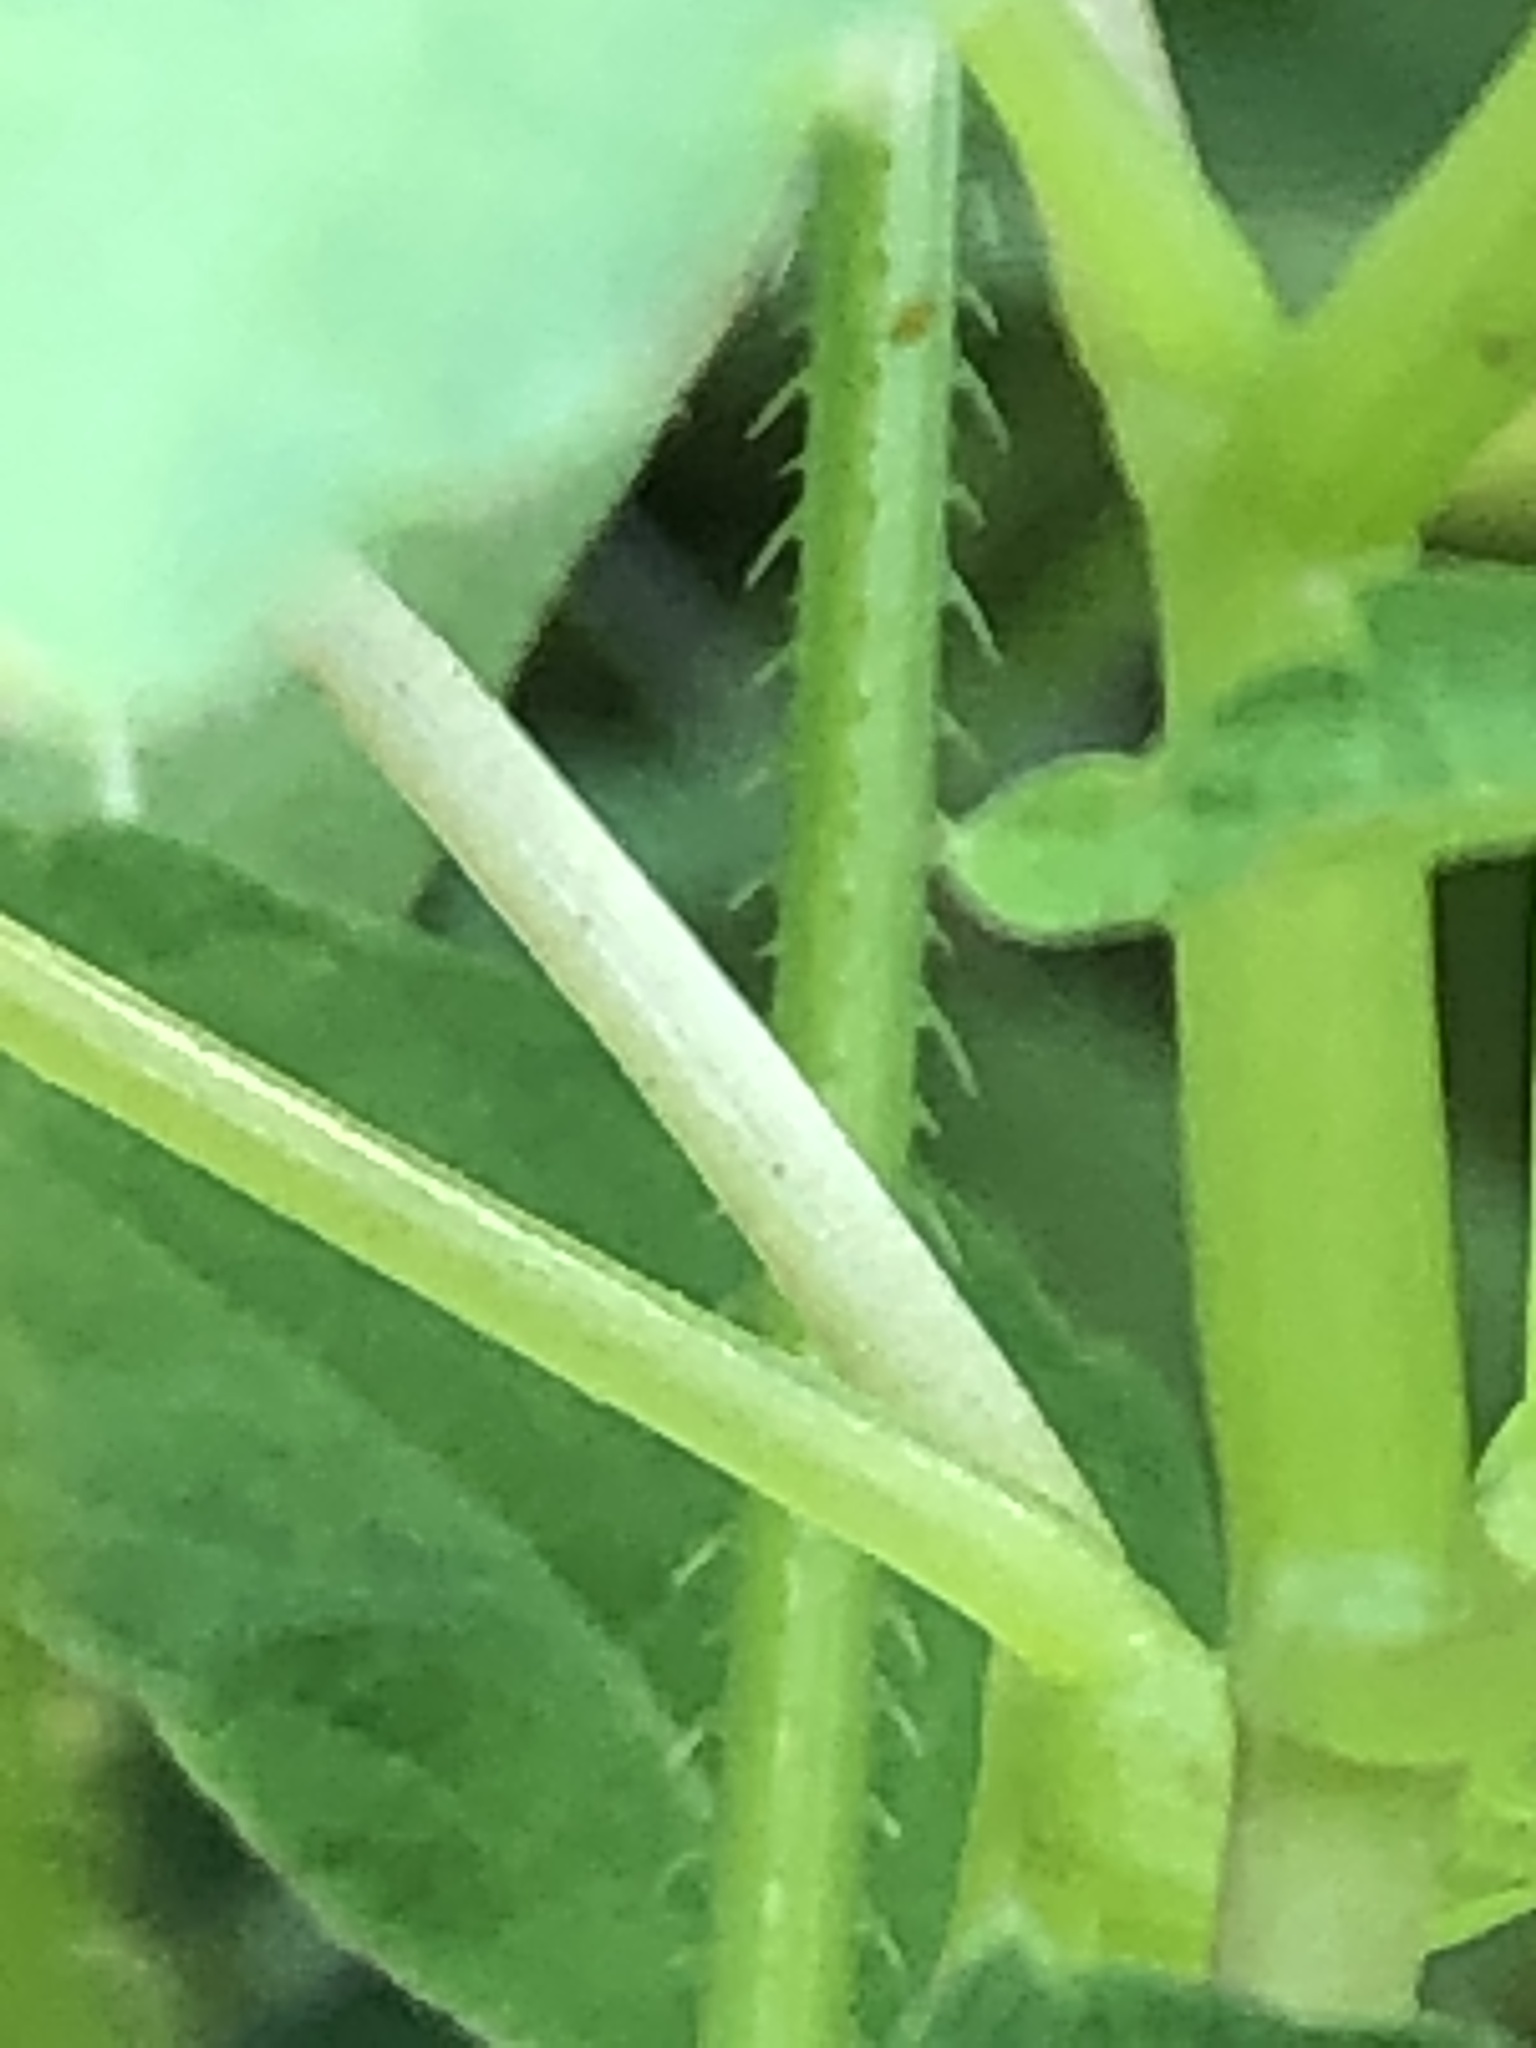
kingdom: Plantae
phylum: Tracheophyta
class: Magnoliopsida
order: Caryophyllales
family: Polygonaceae
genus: Persicaria
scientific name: Persicaria sagittata
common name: American tearthumb
